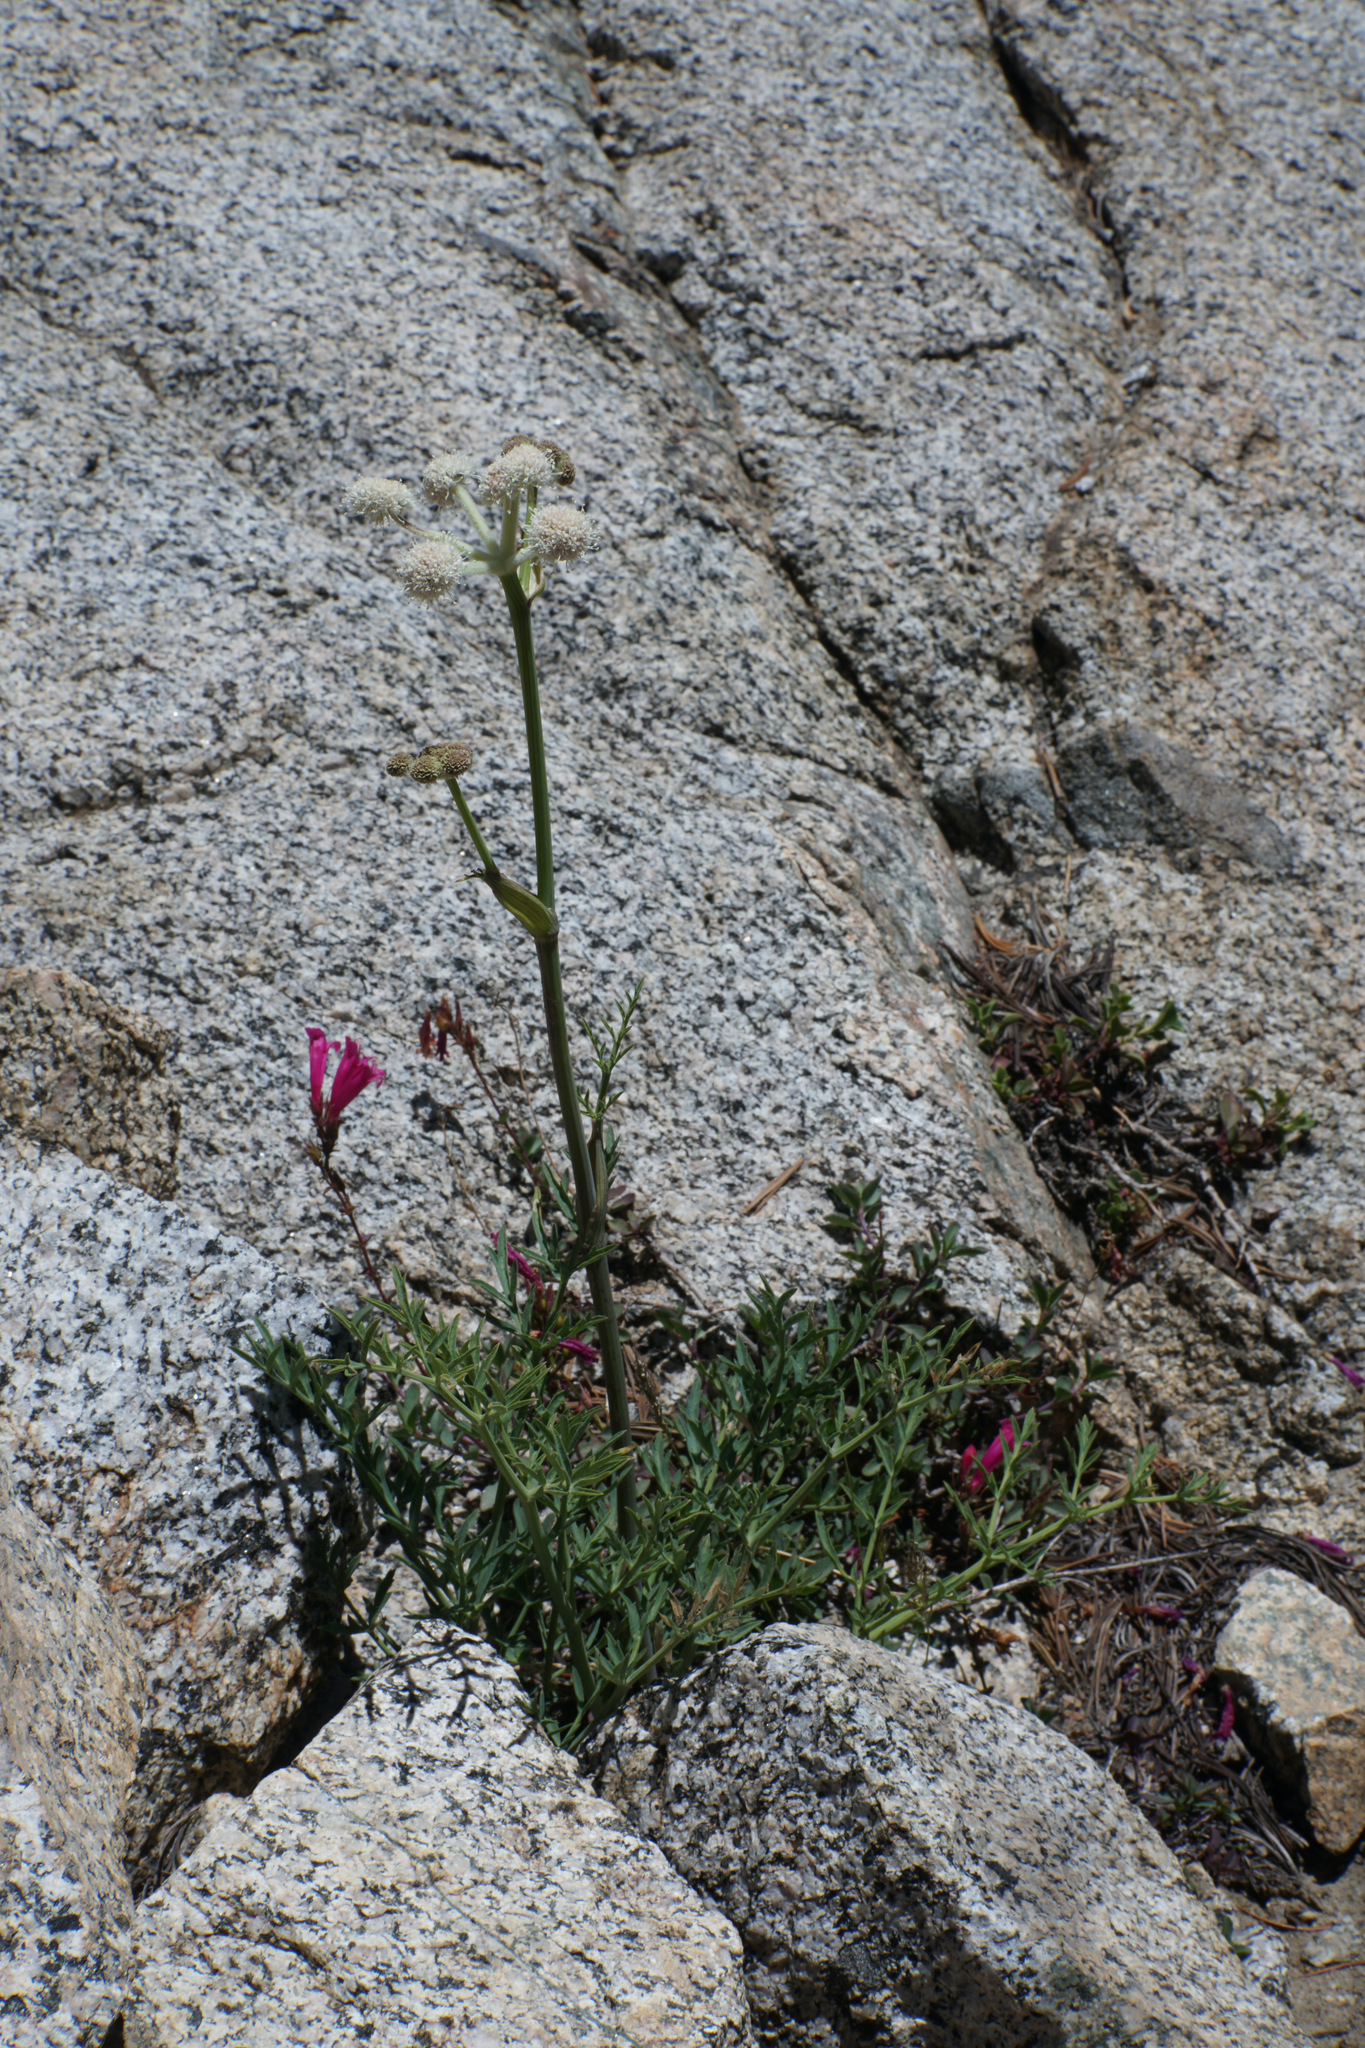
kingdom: Plantae
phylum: Tracheophyta
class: Magnoliopsida
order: Apiales
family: Apiaceae
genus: Angelica
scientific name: Angelica capitellata
